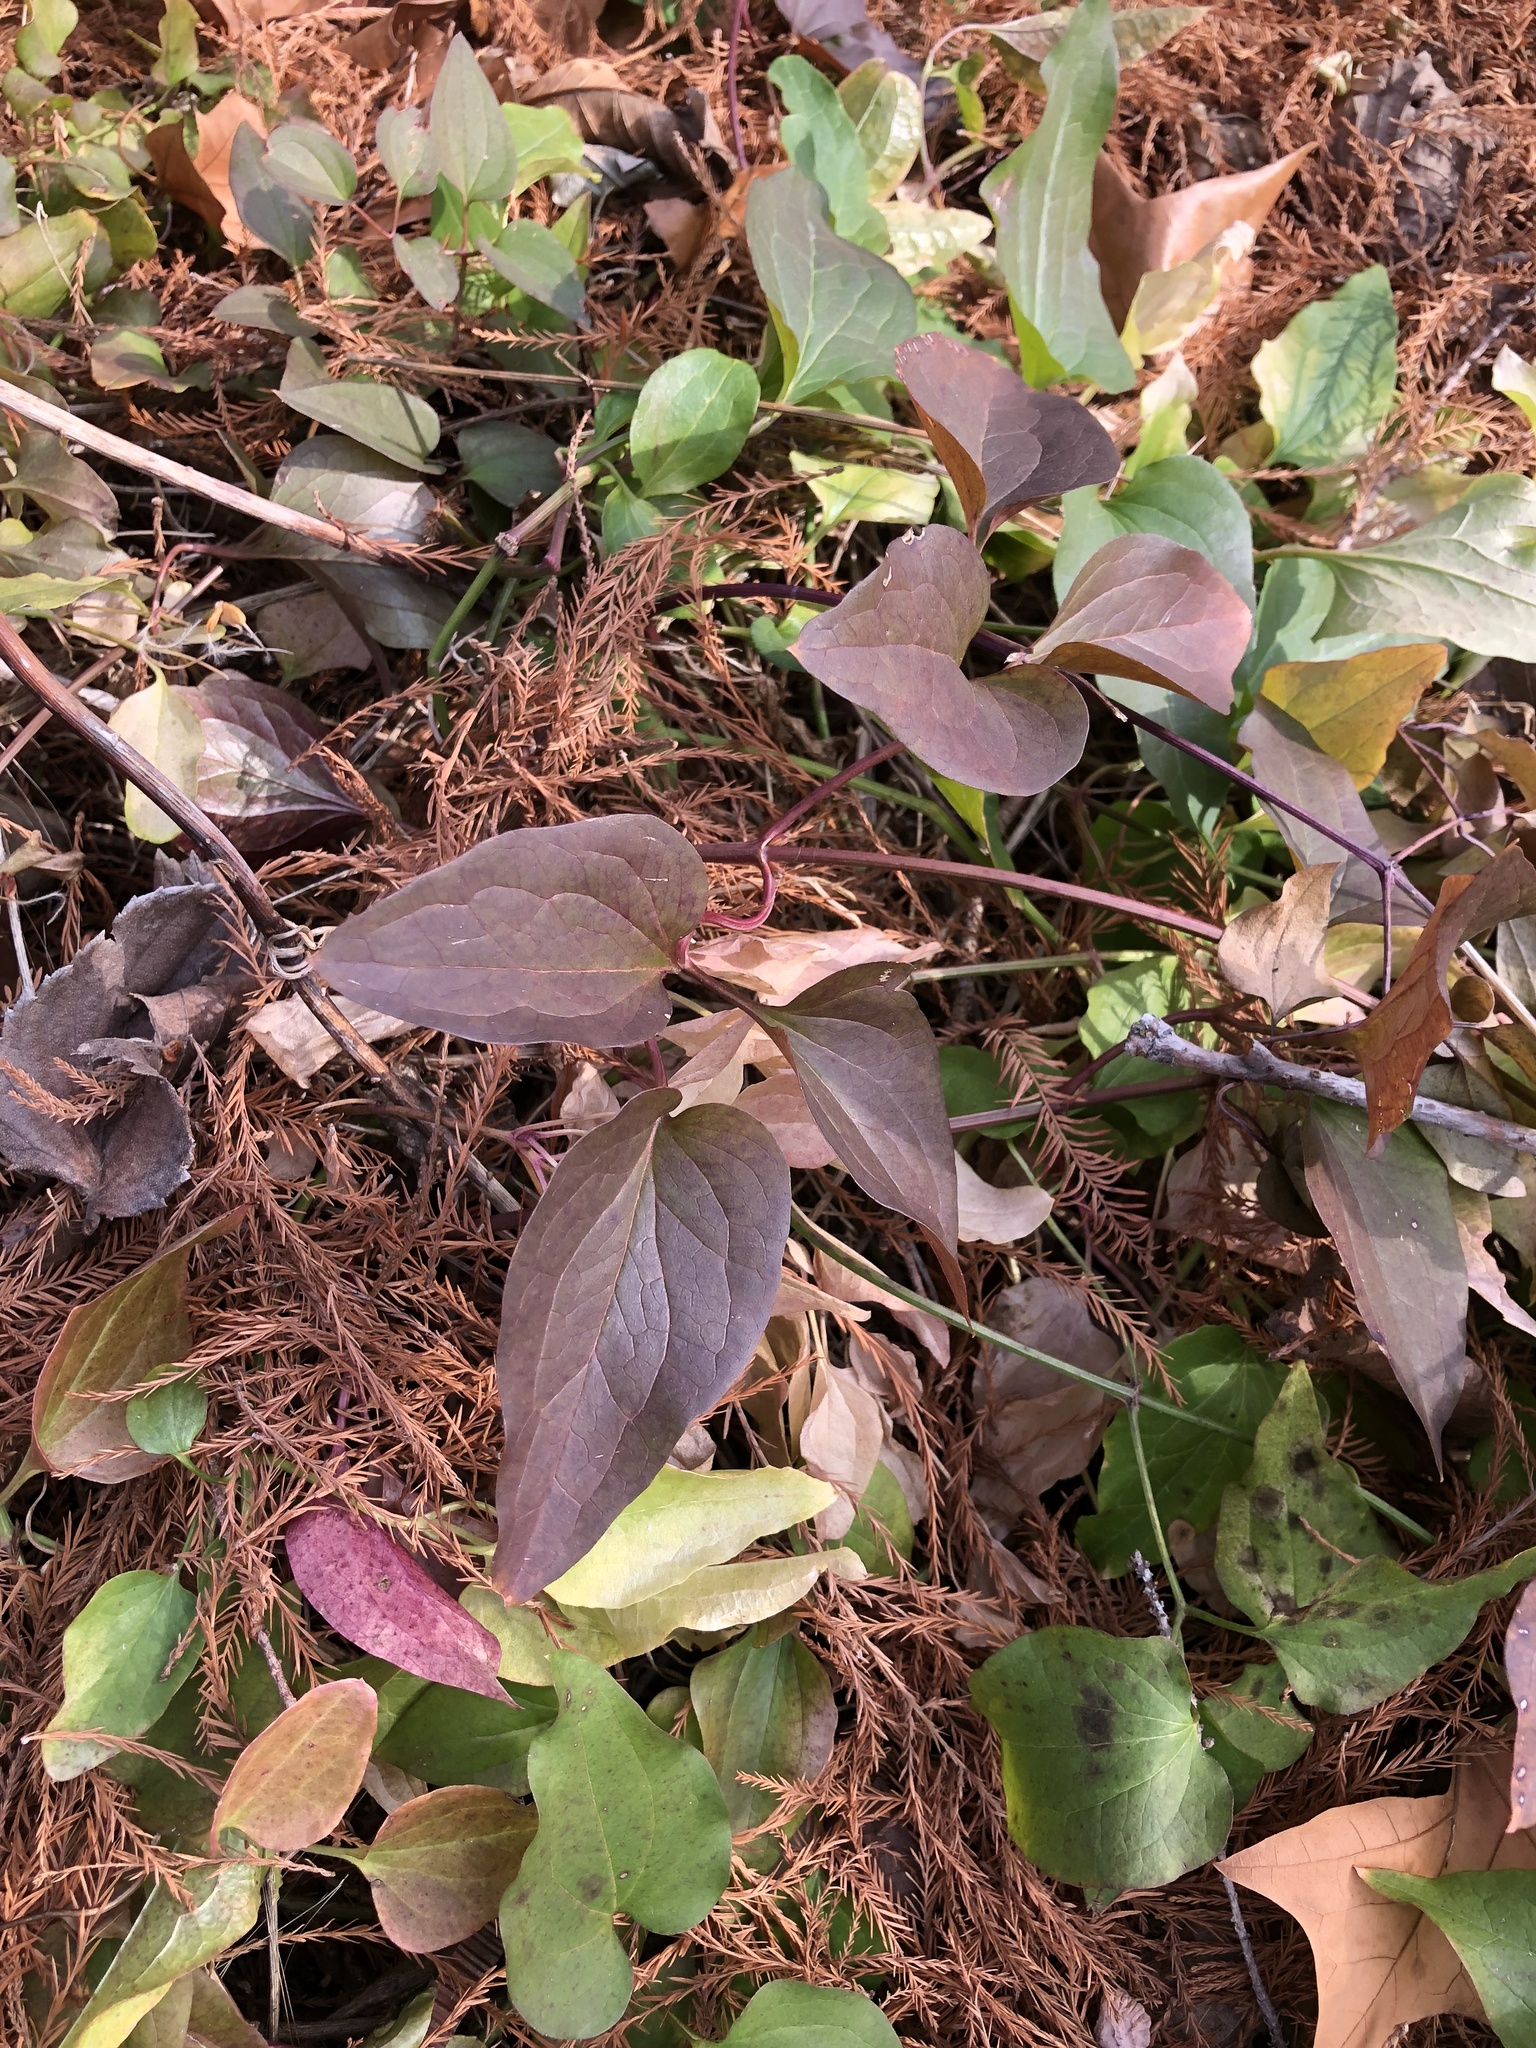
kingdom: Plantae
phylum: Tracheophyta
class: Magnoliopsida
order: Ranunculales
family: Ranunculaceae
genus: Clematis
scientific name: Clematis terniflora
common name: Sweet autumn clematis
